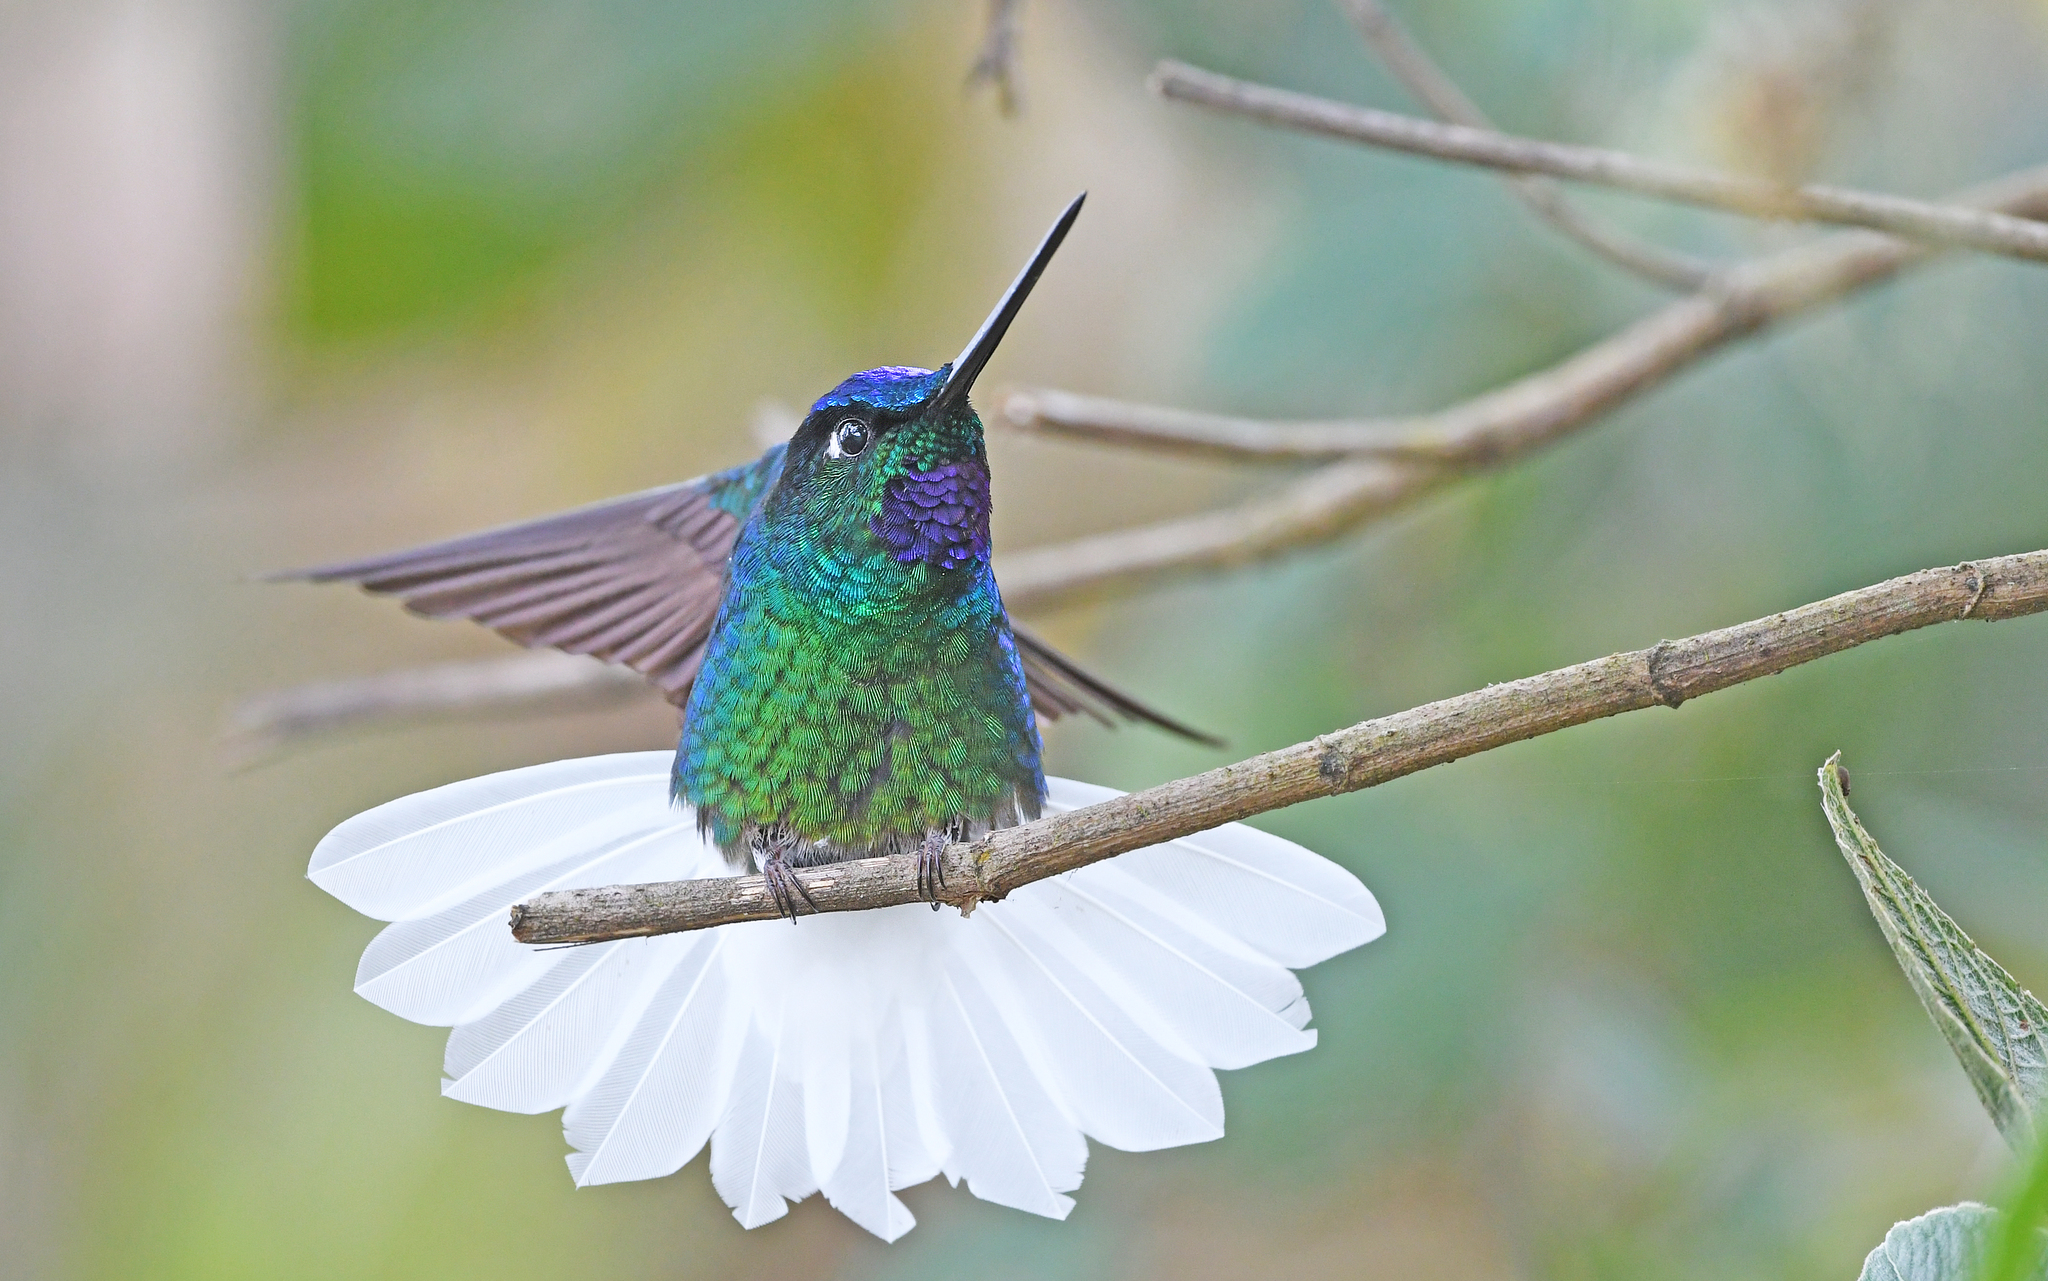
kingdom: Animalia
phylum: Chordata
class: Aves
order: Apodiformes
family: Trochilidae
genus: Coeligena
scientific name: Coeligena phalerata
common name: White-tailed starfrontlet
